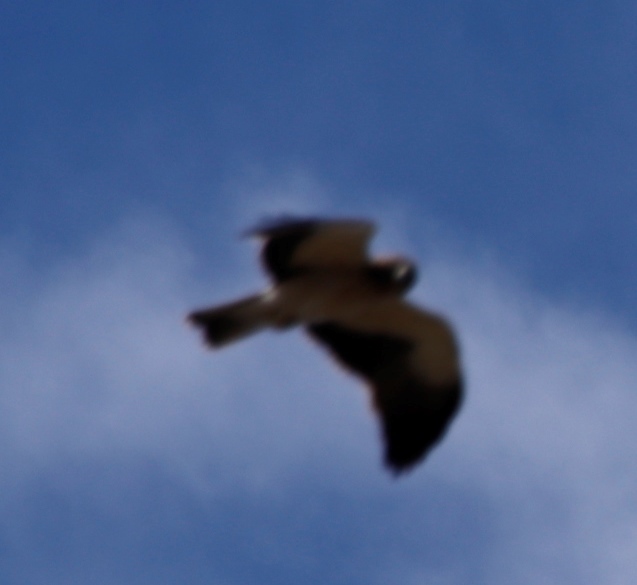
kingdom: Animalia
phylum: Chordata
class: Aves
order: Accipitriformes
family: Accipitridae
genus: Hieraaetus
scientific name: Hieraaetus pennatus
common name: Booted eagle
